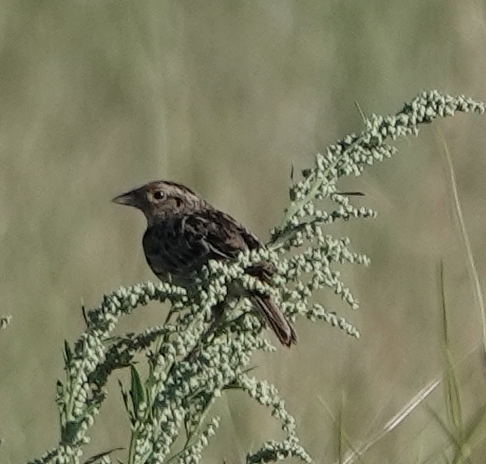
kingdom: Animalia
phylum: Chordata
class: Aves
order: Passeriformes
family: Passerellidae
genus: Ammodramus
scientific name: Ammodramus savannarum
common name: Grasshopper sparrow
